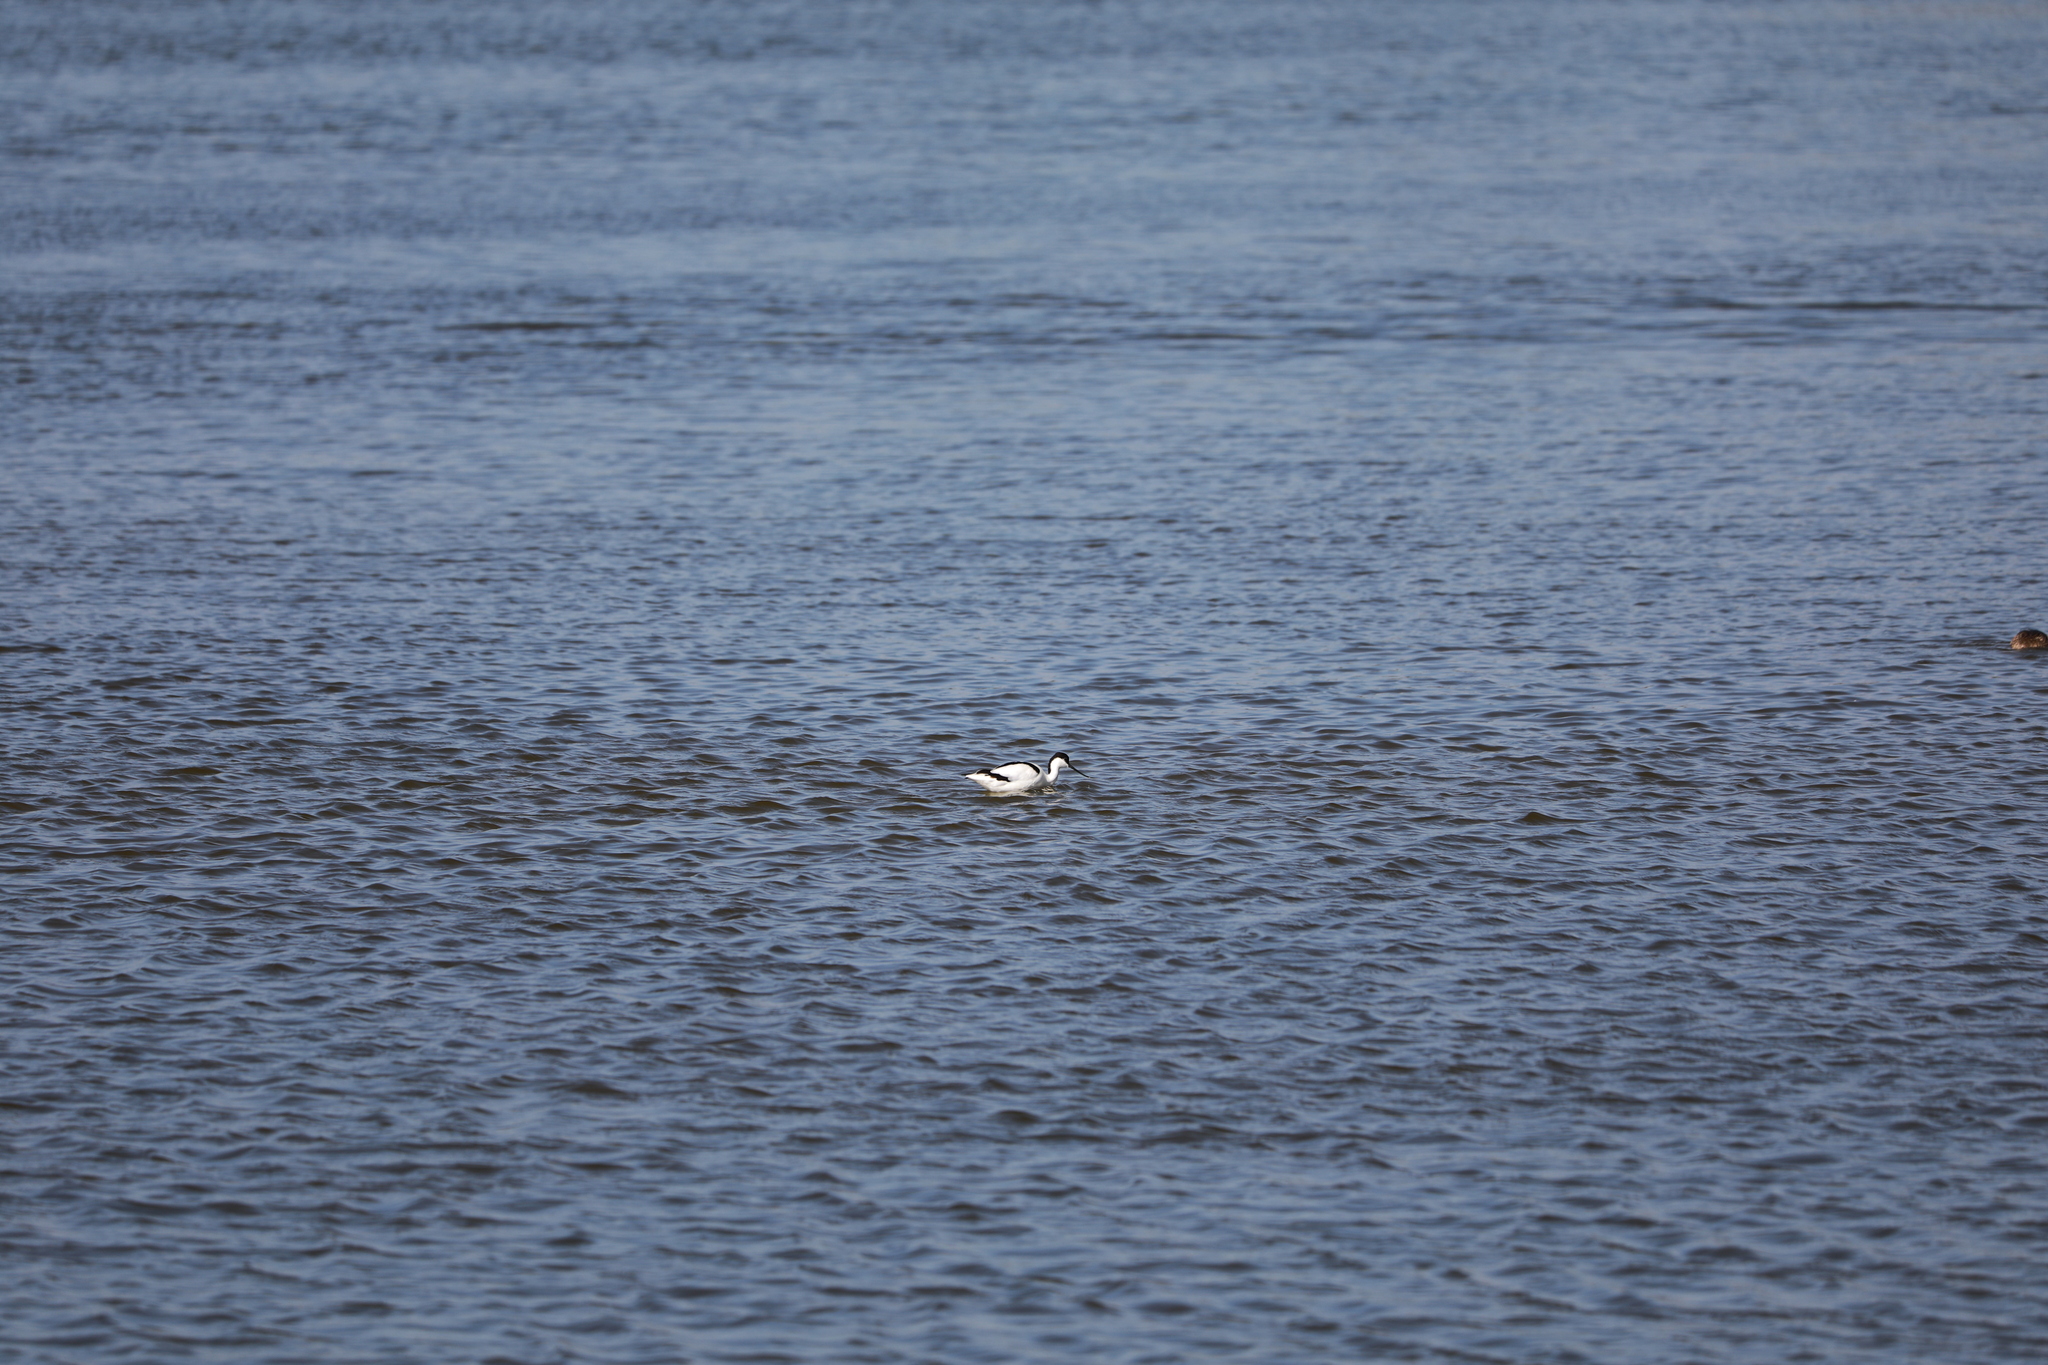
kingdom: Animalia
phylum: Chordata
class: Aves
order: Charadriiformes
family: Recurvirostridae
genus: Recurvirostra
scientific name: Recurvirostra avosetta
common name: Pied avocet
